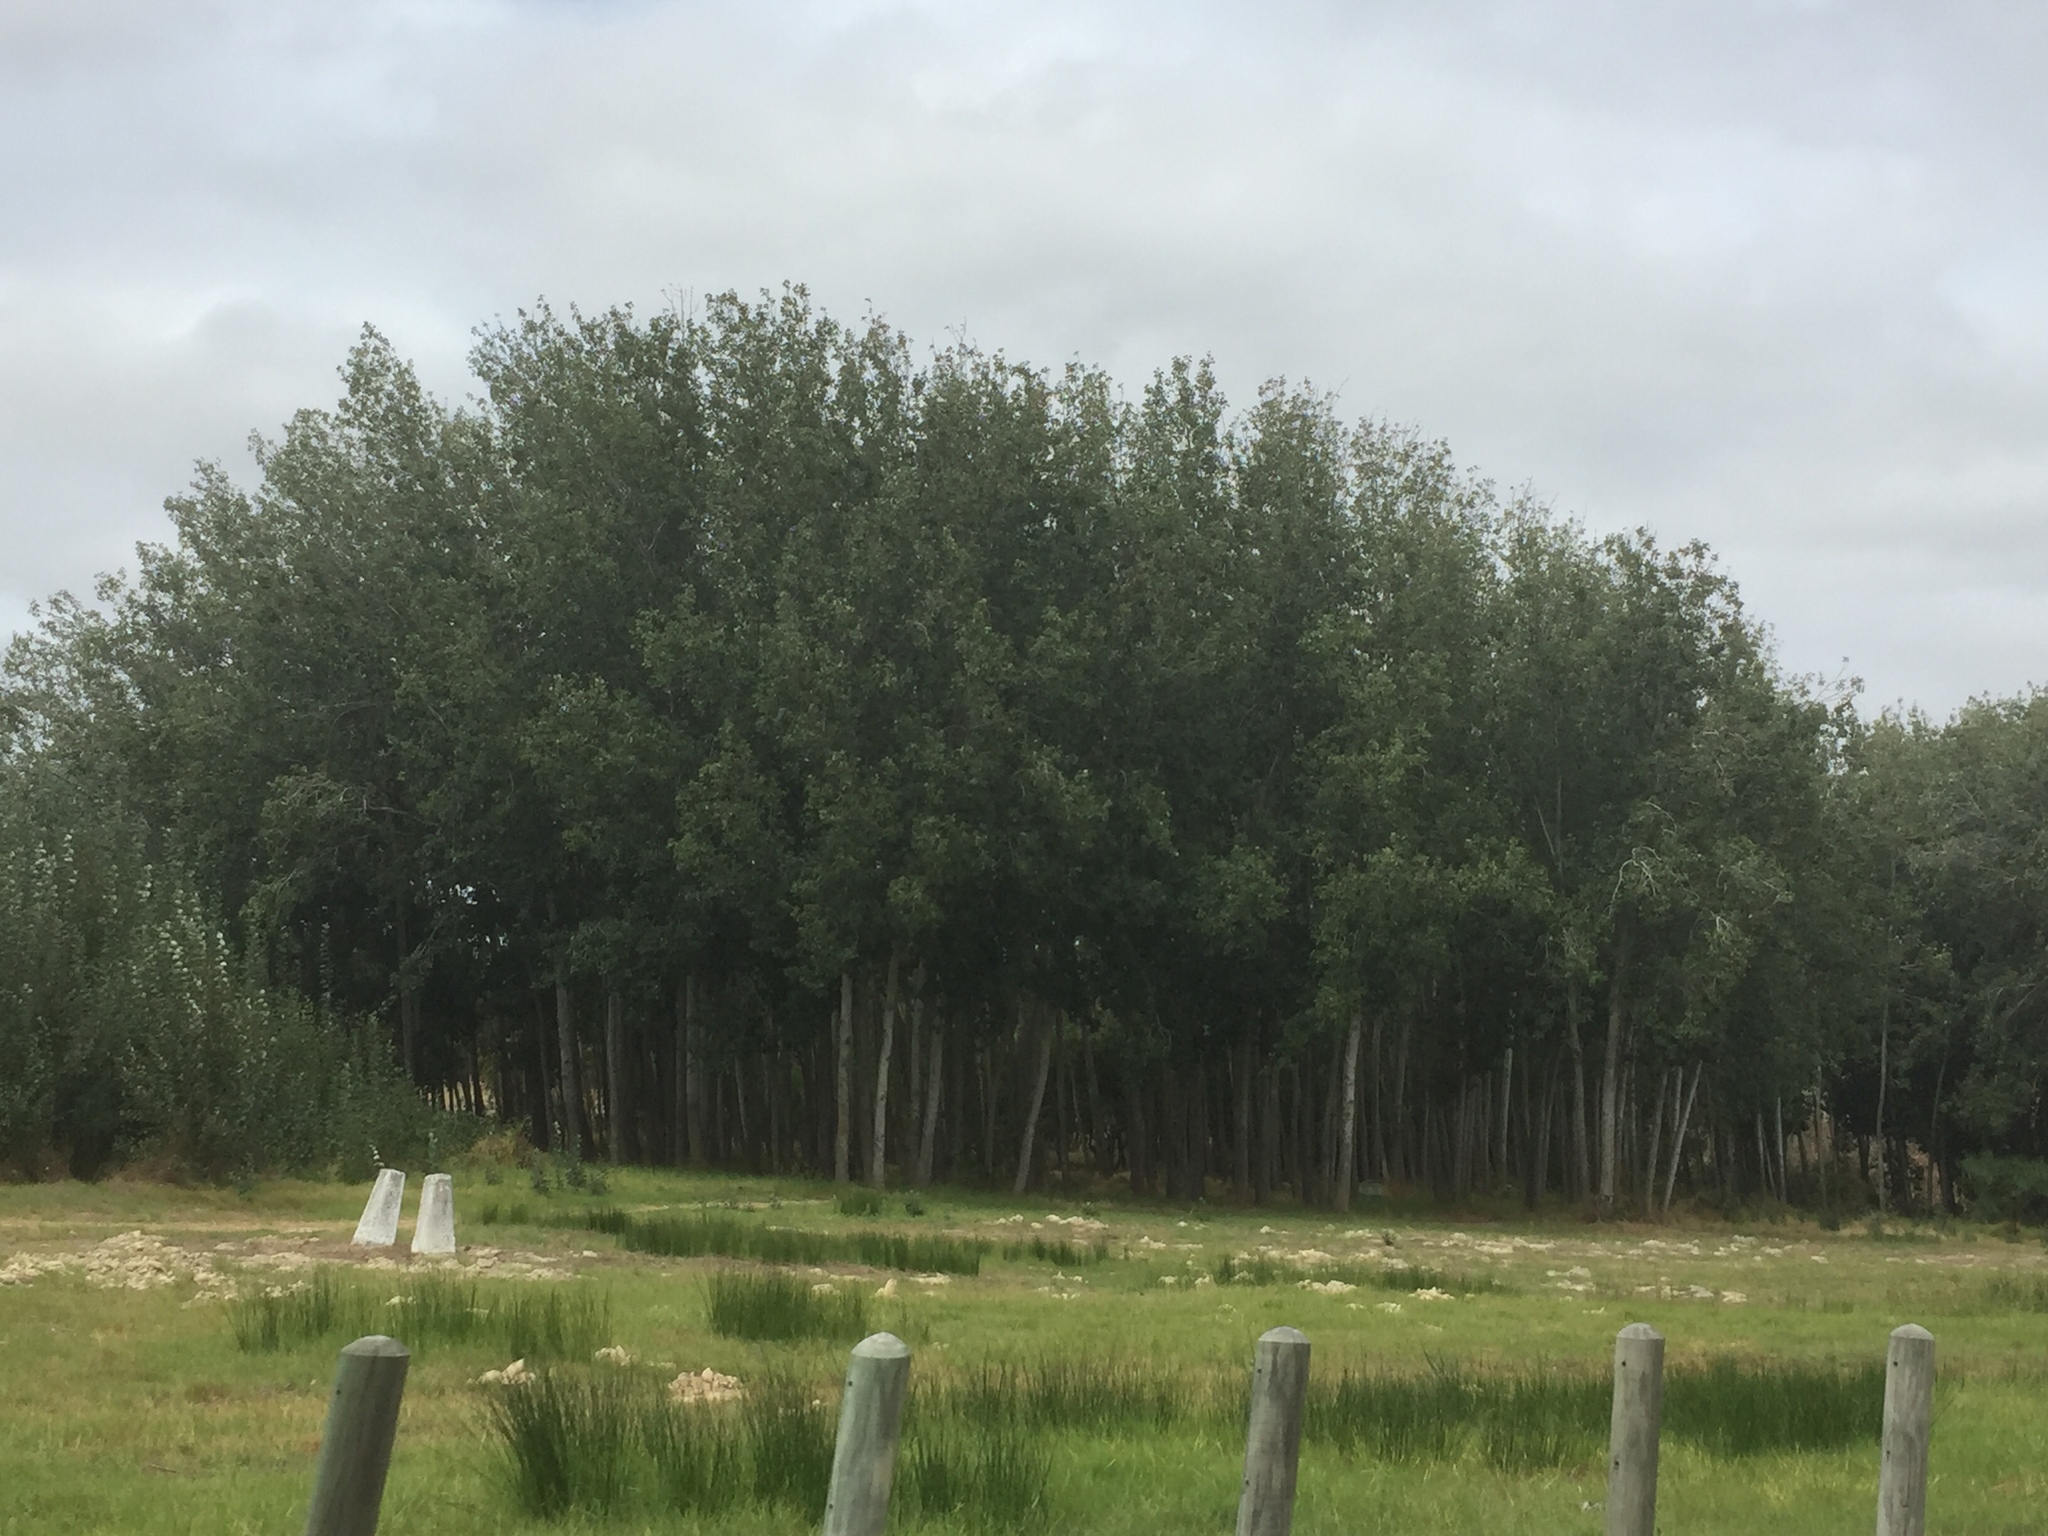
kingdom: Plantae
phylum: Tracheophyta
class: Magnoliopsida
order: Malpighiales
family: Salicaceae
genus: Populus
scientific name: Populus canescens
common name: Gray poplar
